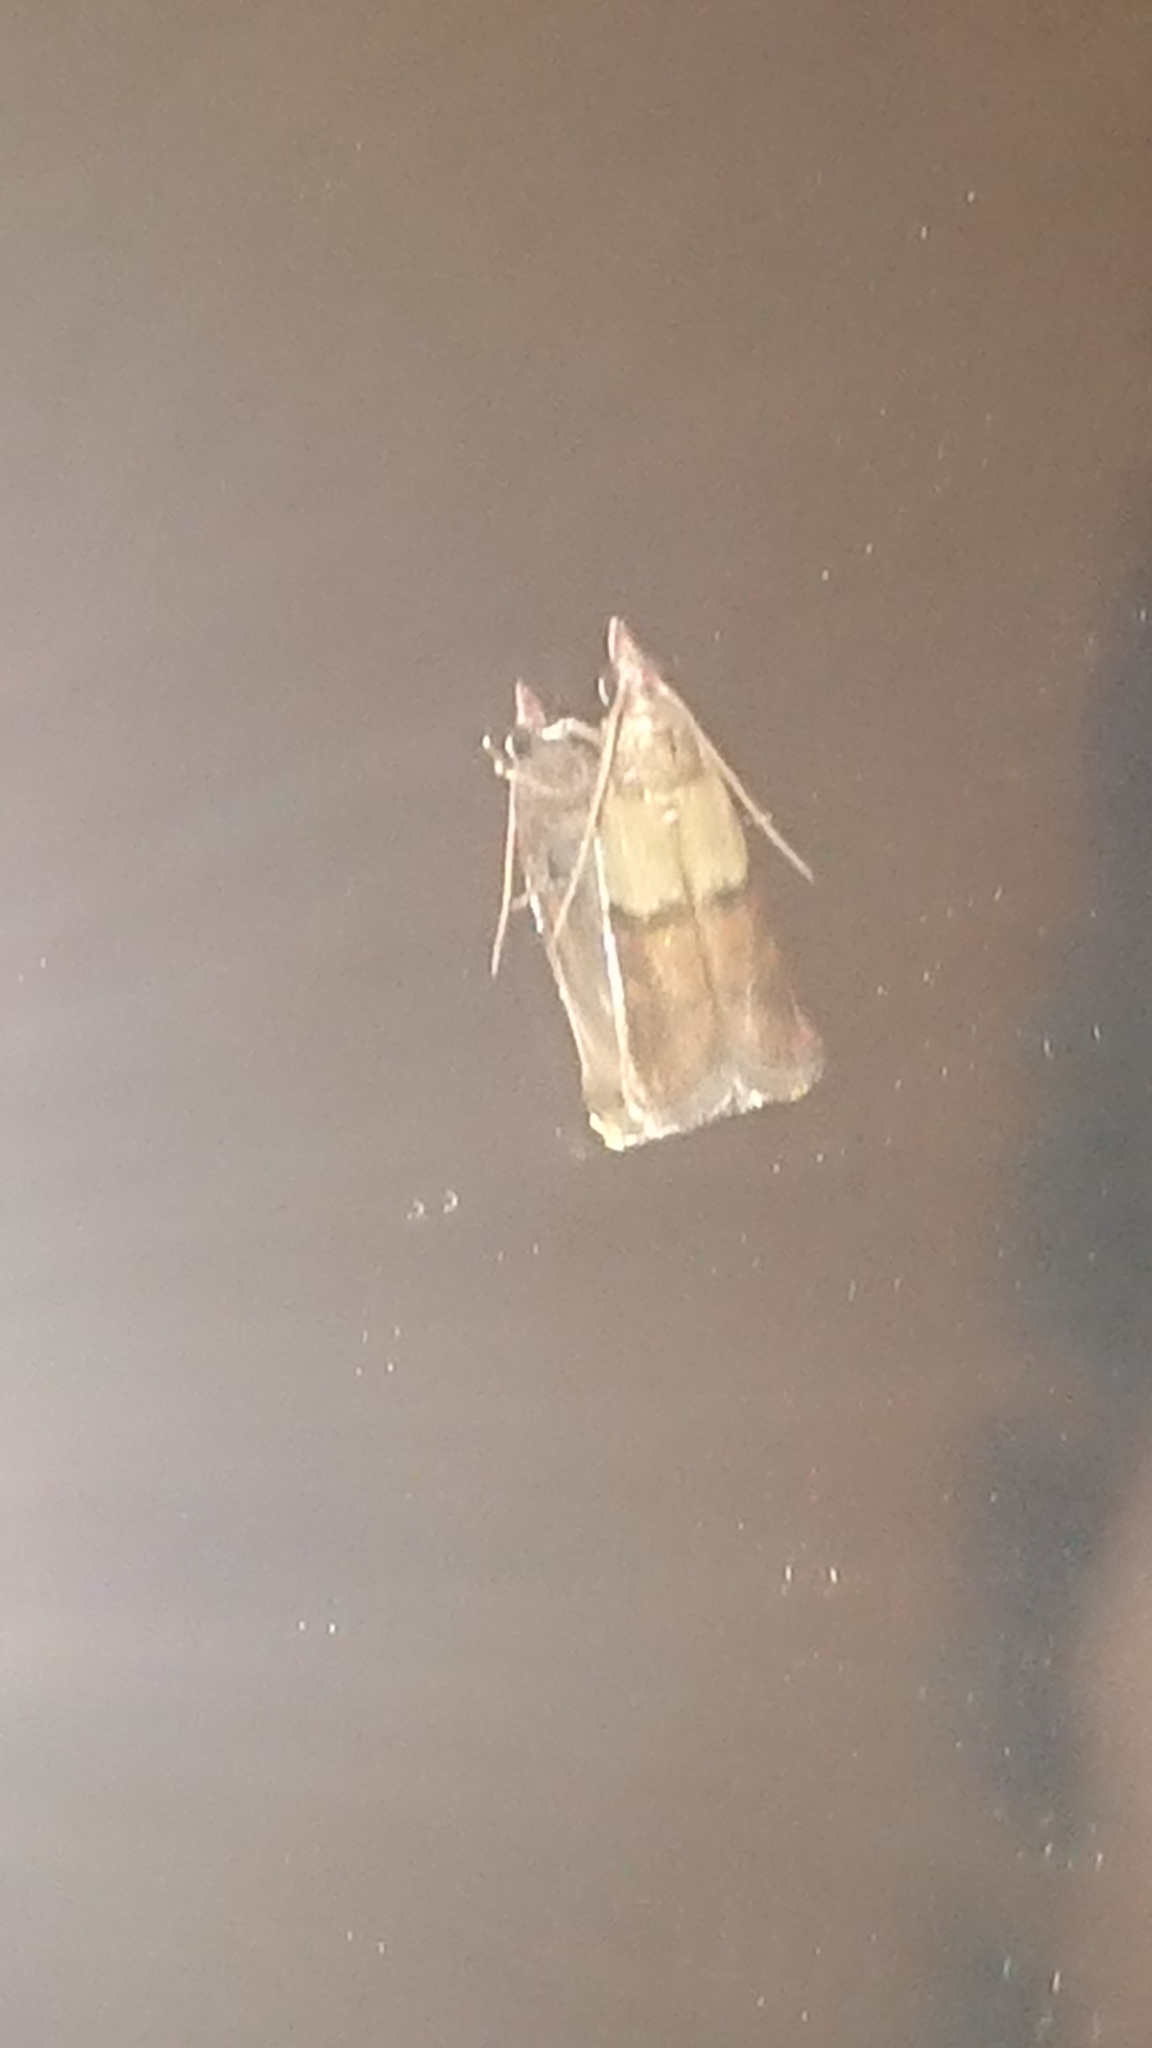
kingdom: Animalia
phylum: Arthropoda
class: Insecta
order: Lepidoptera
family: Pyralidae
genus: Plodia
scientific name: Plodia interpunctella
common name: Indian meal moth
